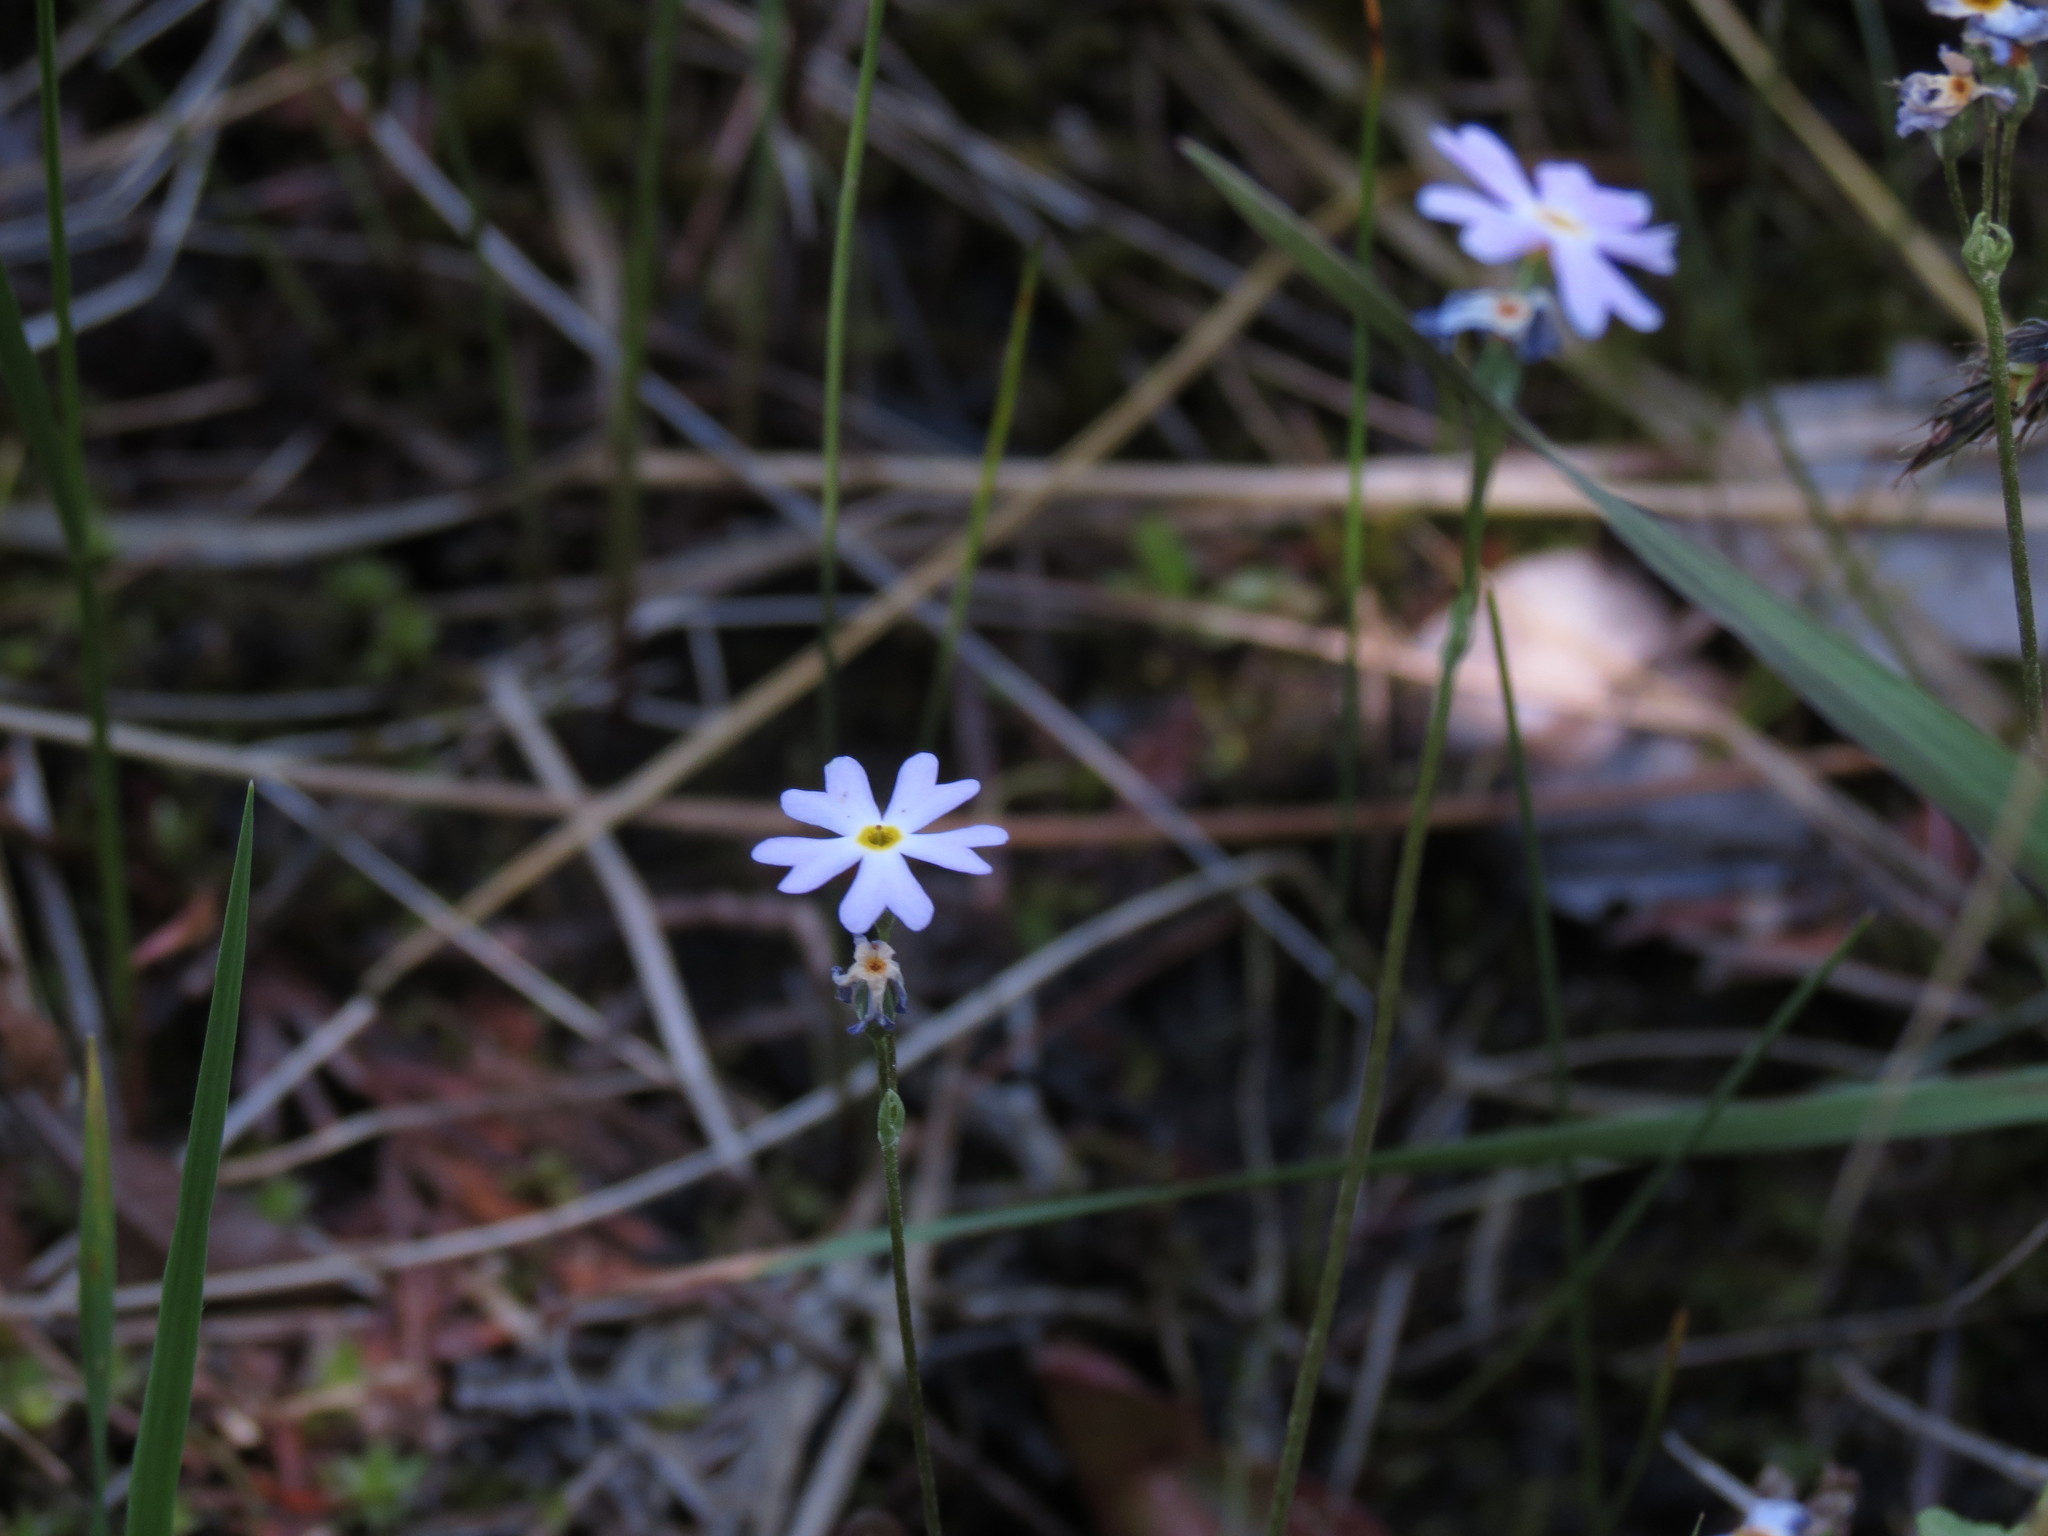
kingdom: Plantae
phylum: Tracheophyta
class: Magnoliopsida
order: Ericales
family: Primulaceae
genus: Primula
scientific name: Primula mistassinica
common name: Bird's-eye primrose
